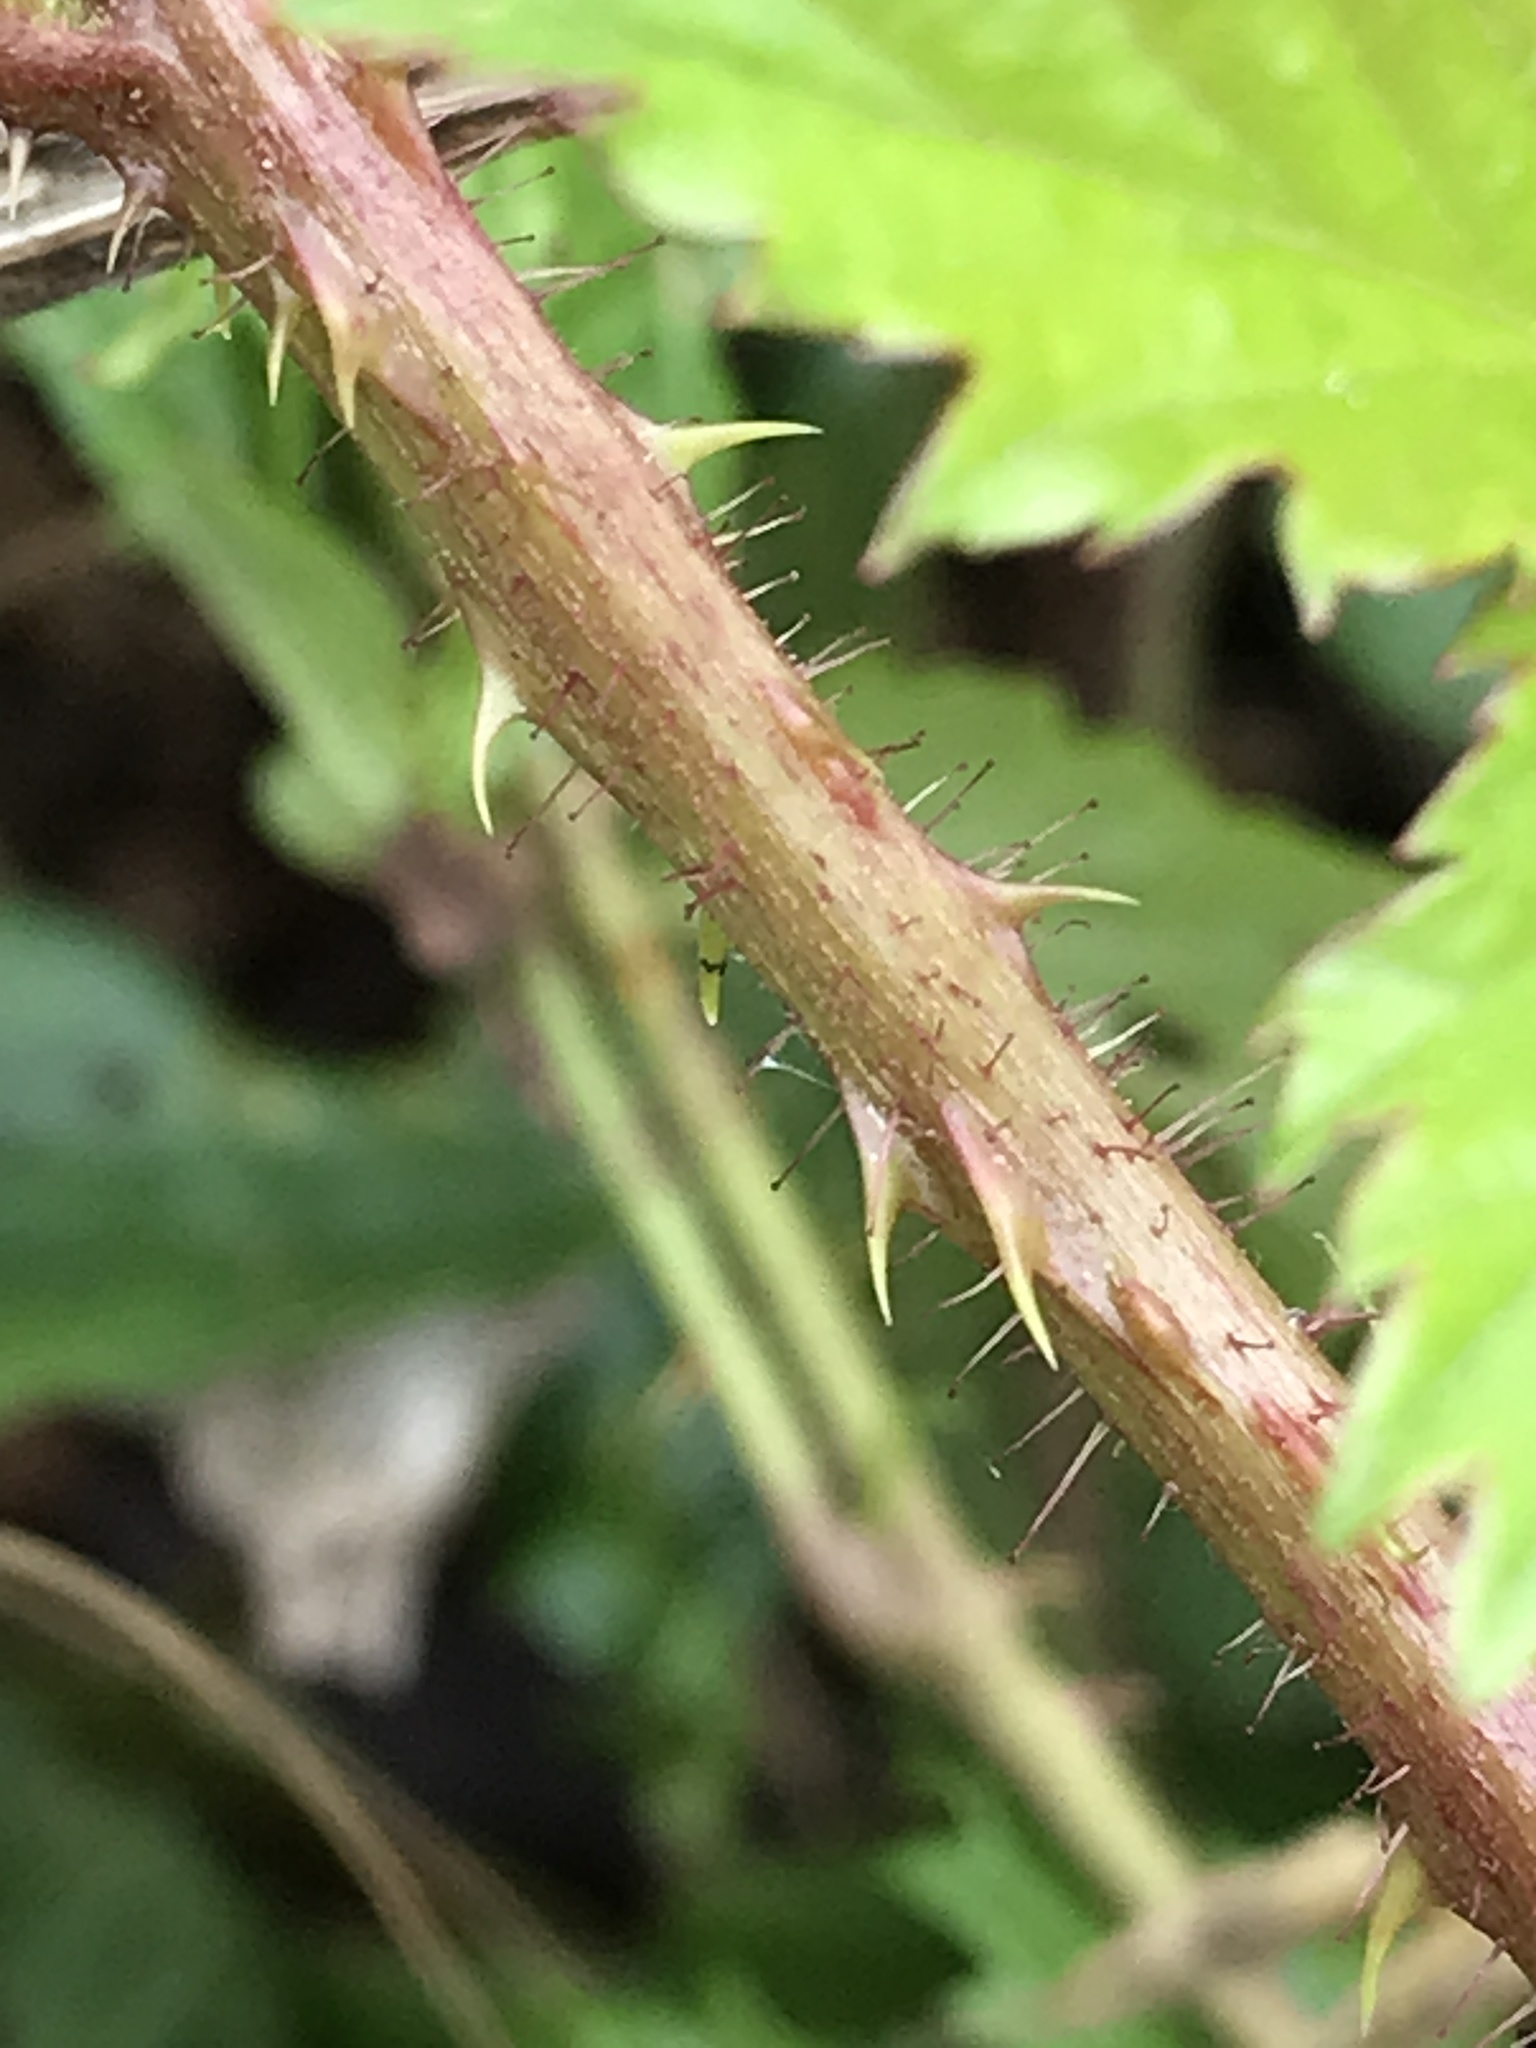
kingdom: Plantae
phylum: Tracheophyta
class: Magnoliopsida
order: Rosales
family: Rosaceae
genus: Rubus
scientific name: Rubus trivialis
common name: Southern dewberry
